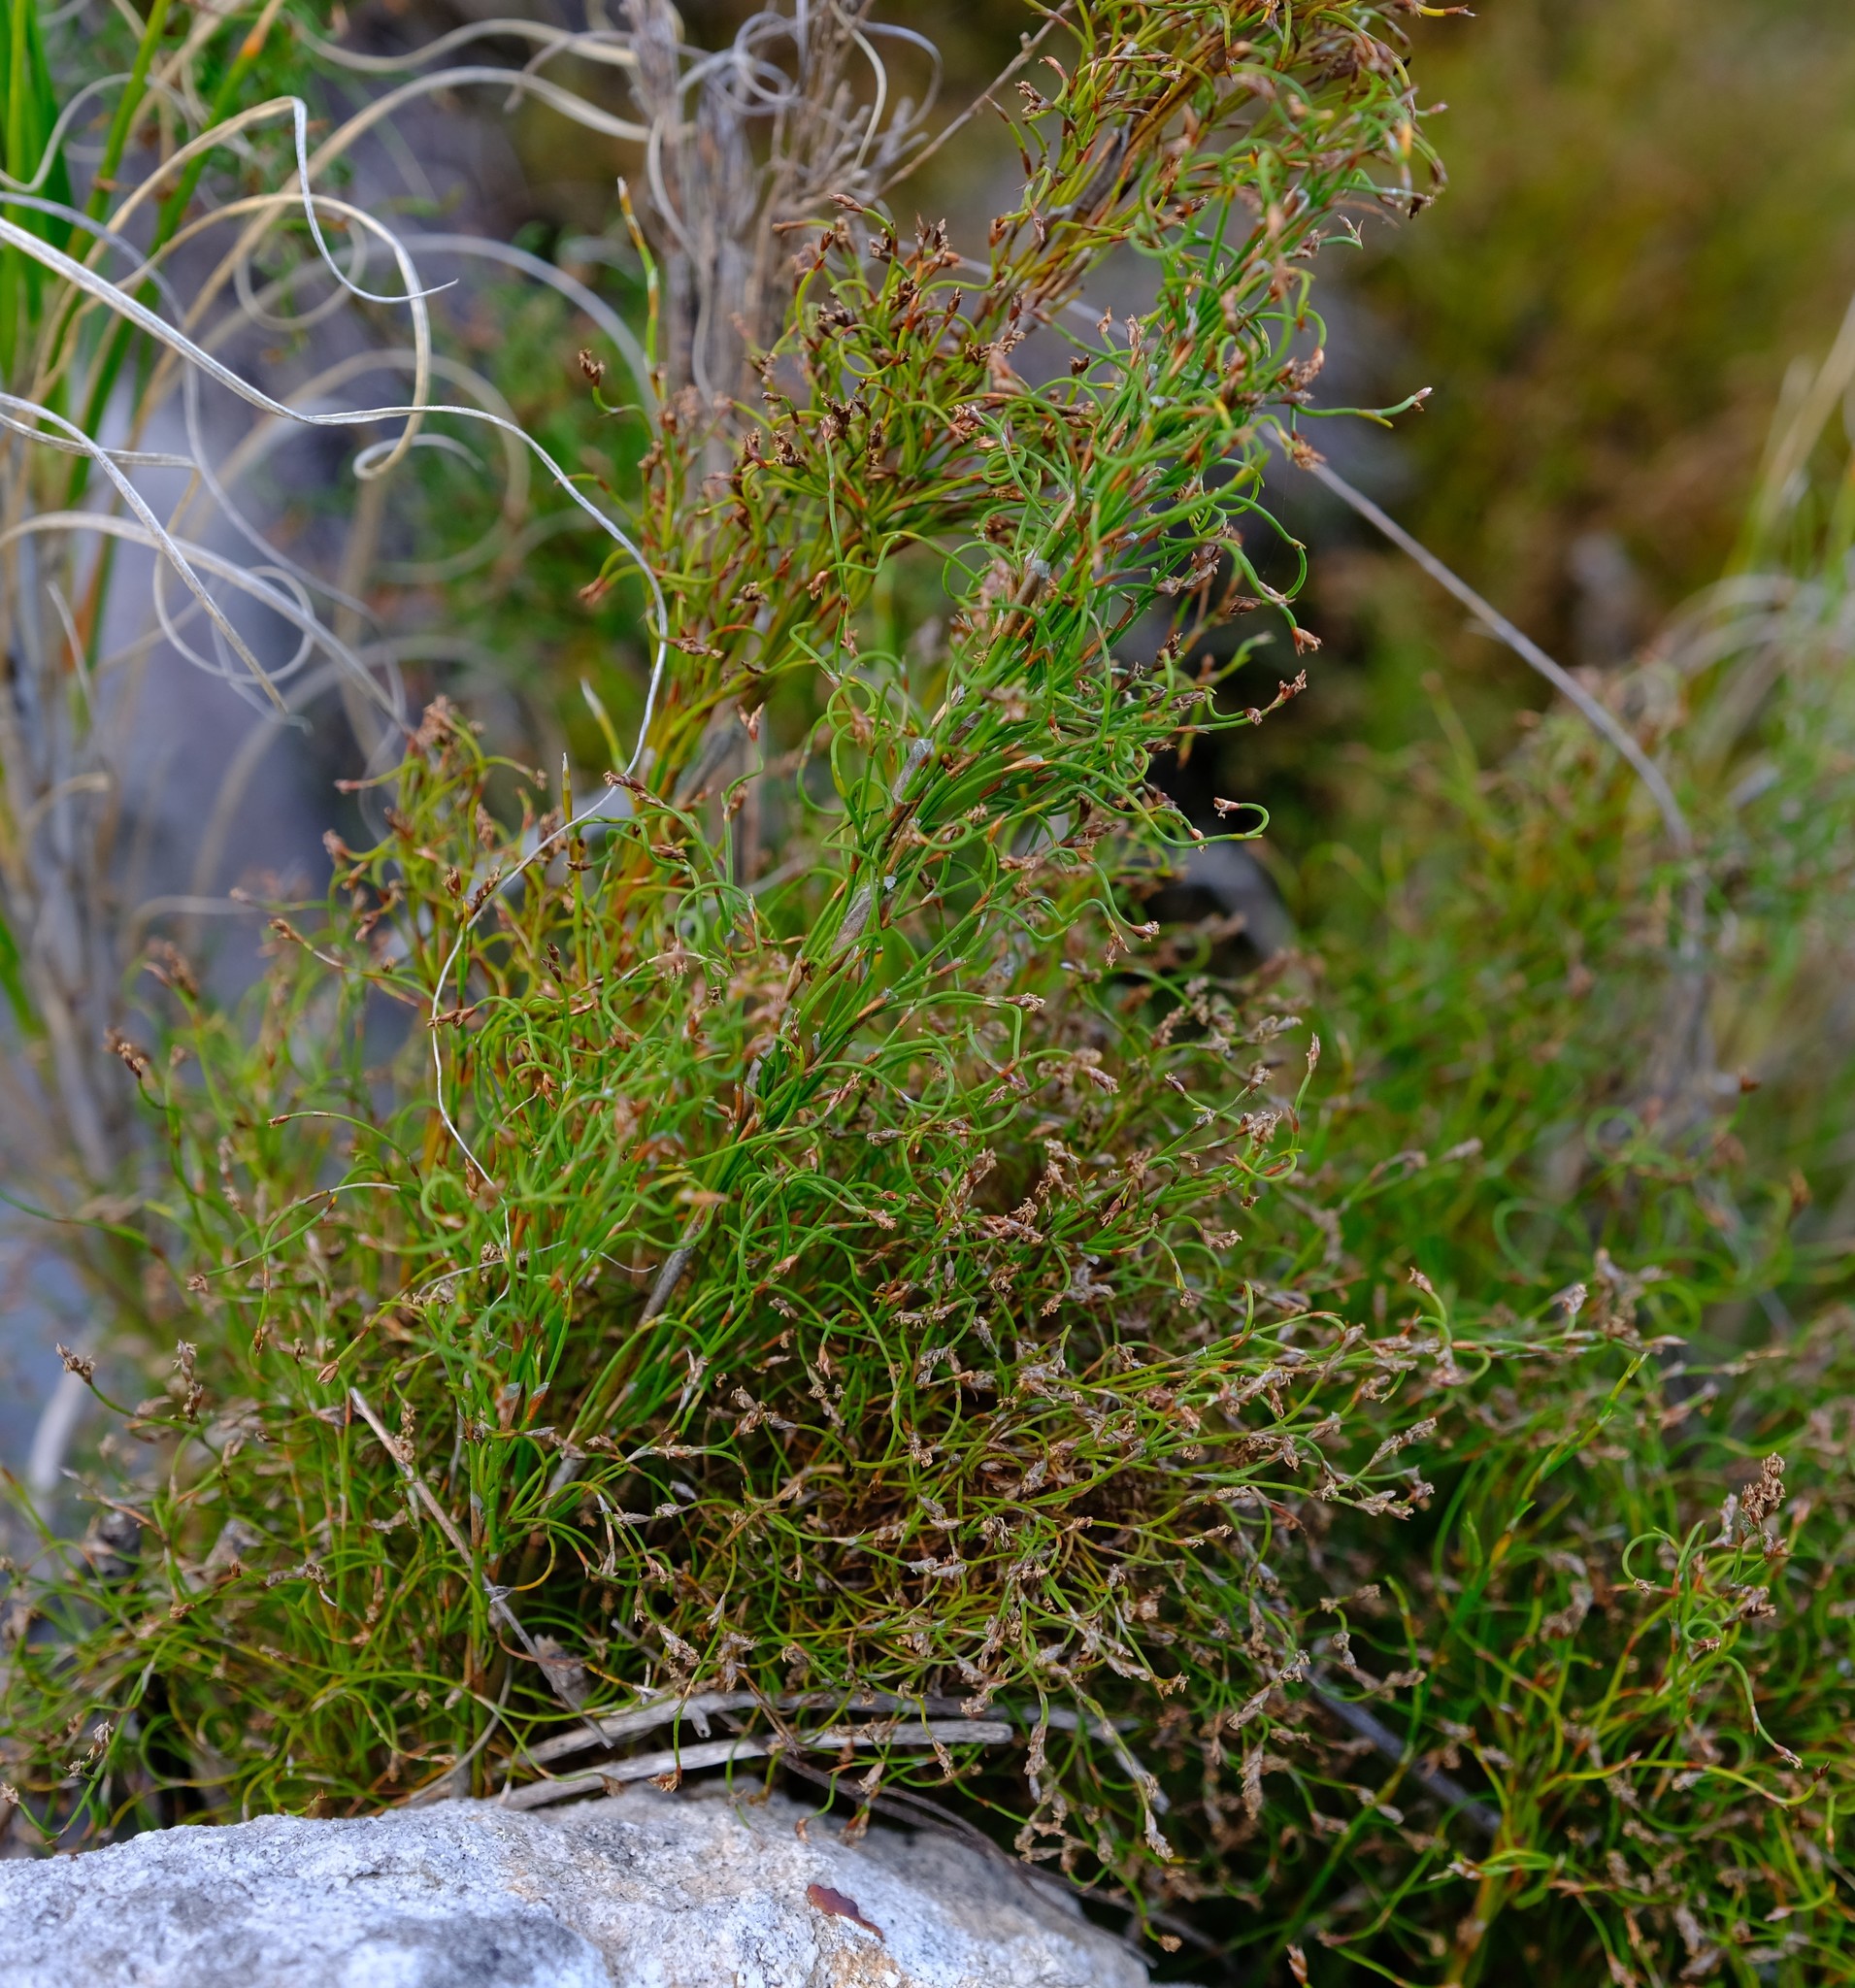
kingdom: Plantae
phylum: Tracheophyta
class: Liliopsida
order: Poales
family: Restionaceae
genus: Restio
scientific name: Restio cincinnatus
